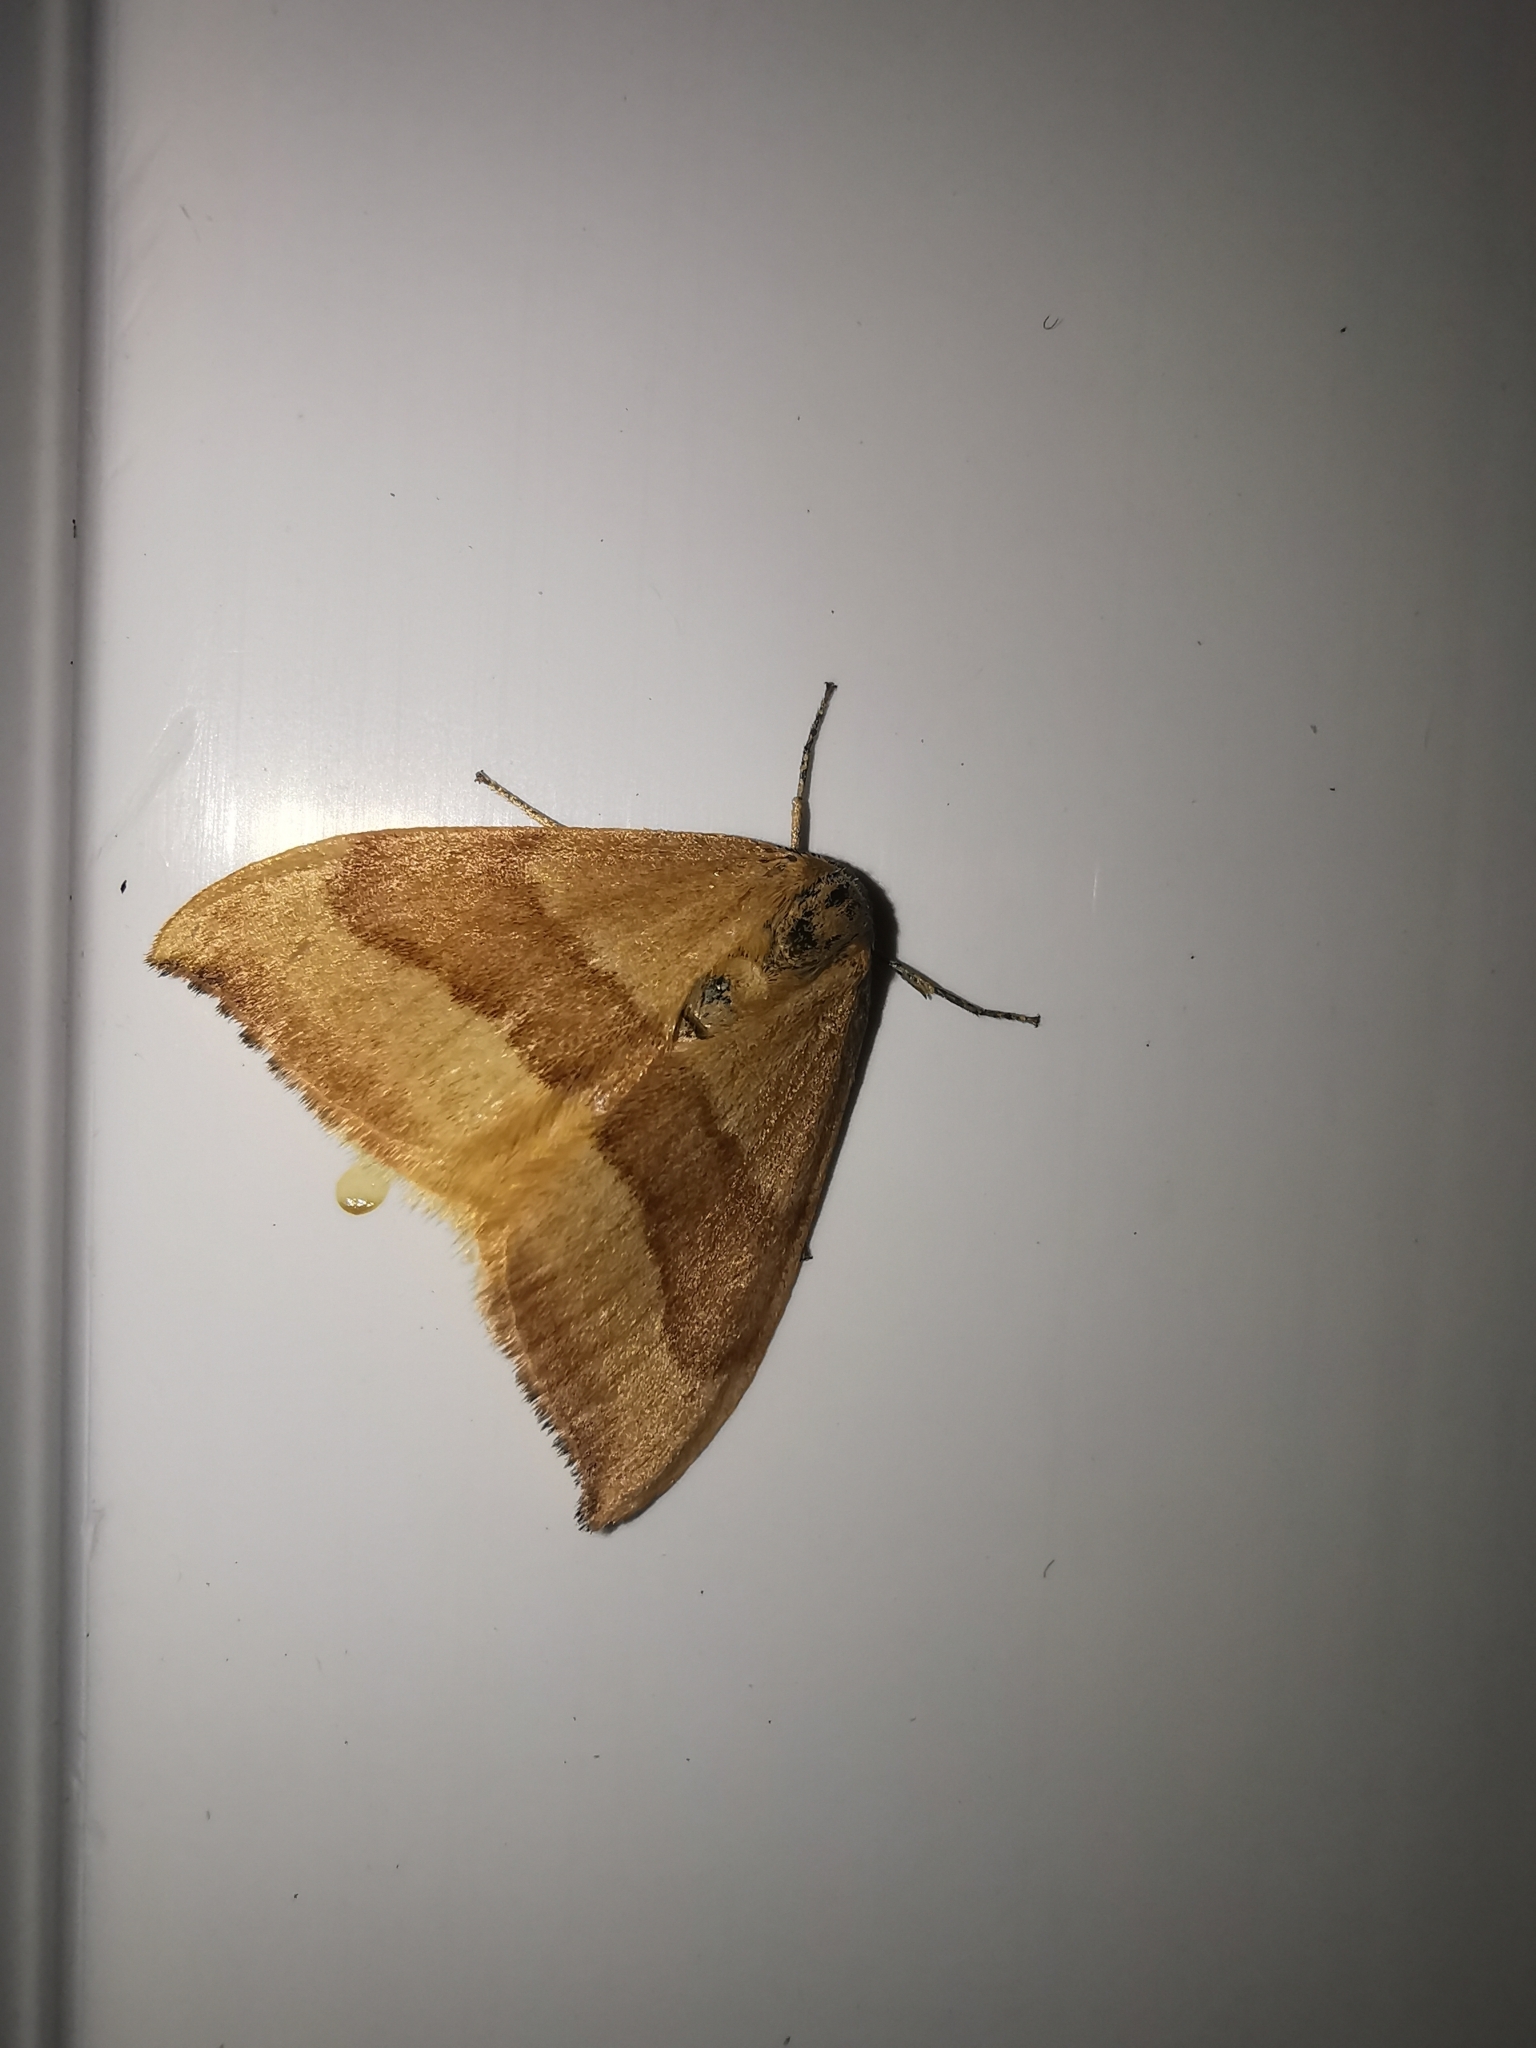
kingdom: Animalia
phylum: Arthropoda
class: Insecta
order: Lepidoptera
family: Drepanidae
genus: Watsonalla
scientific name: Watsonalla cultraria
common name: Barred hook-tip
